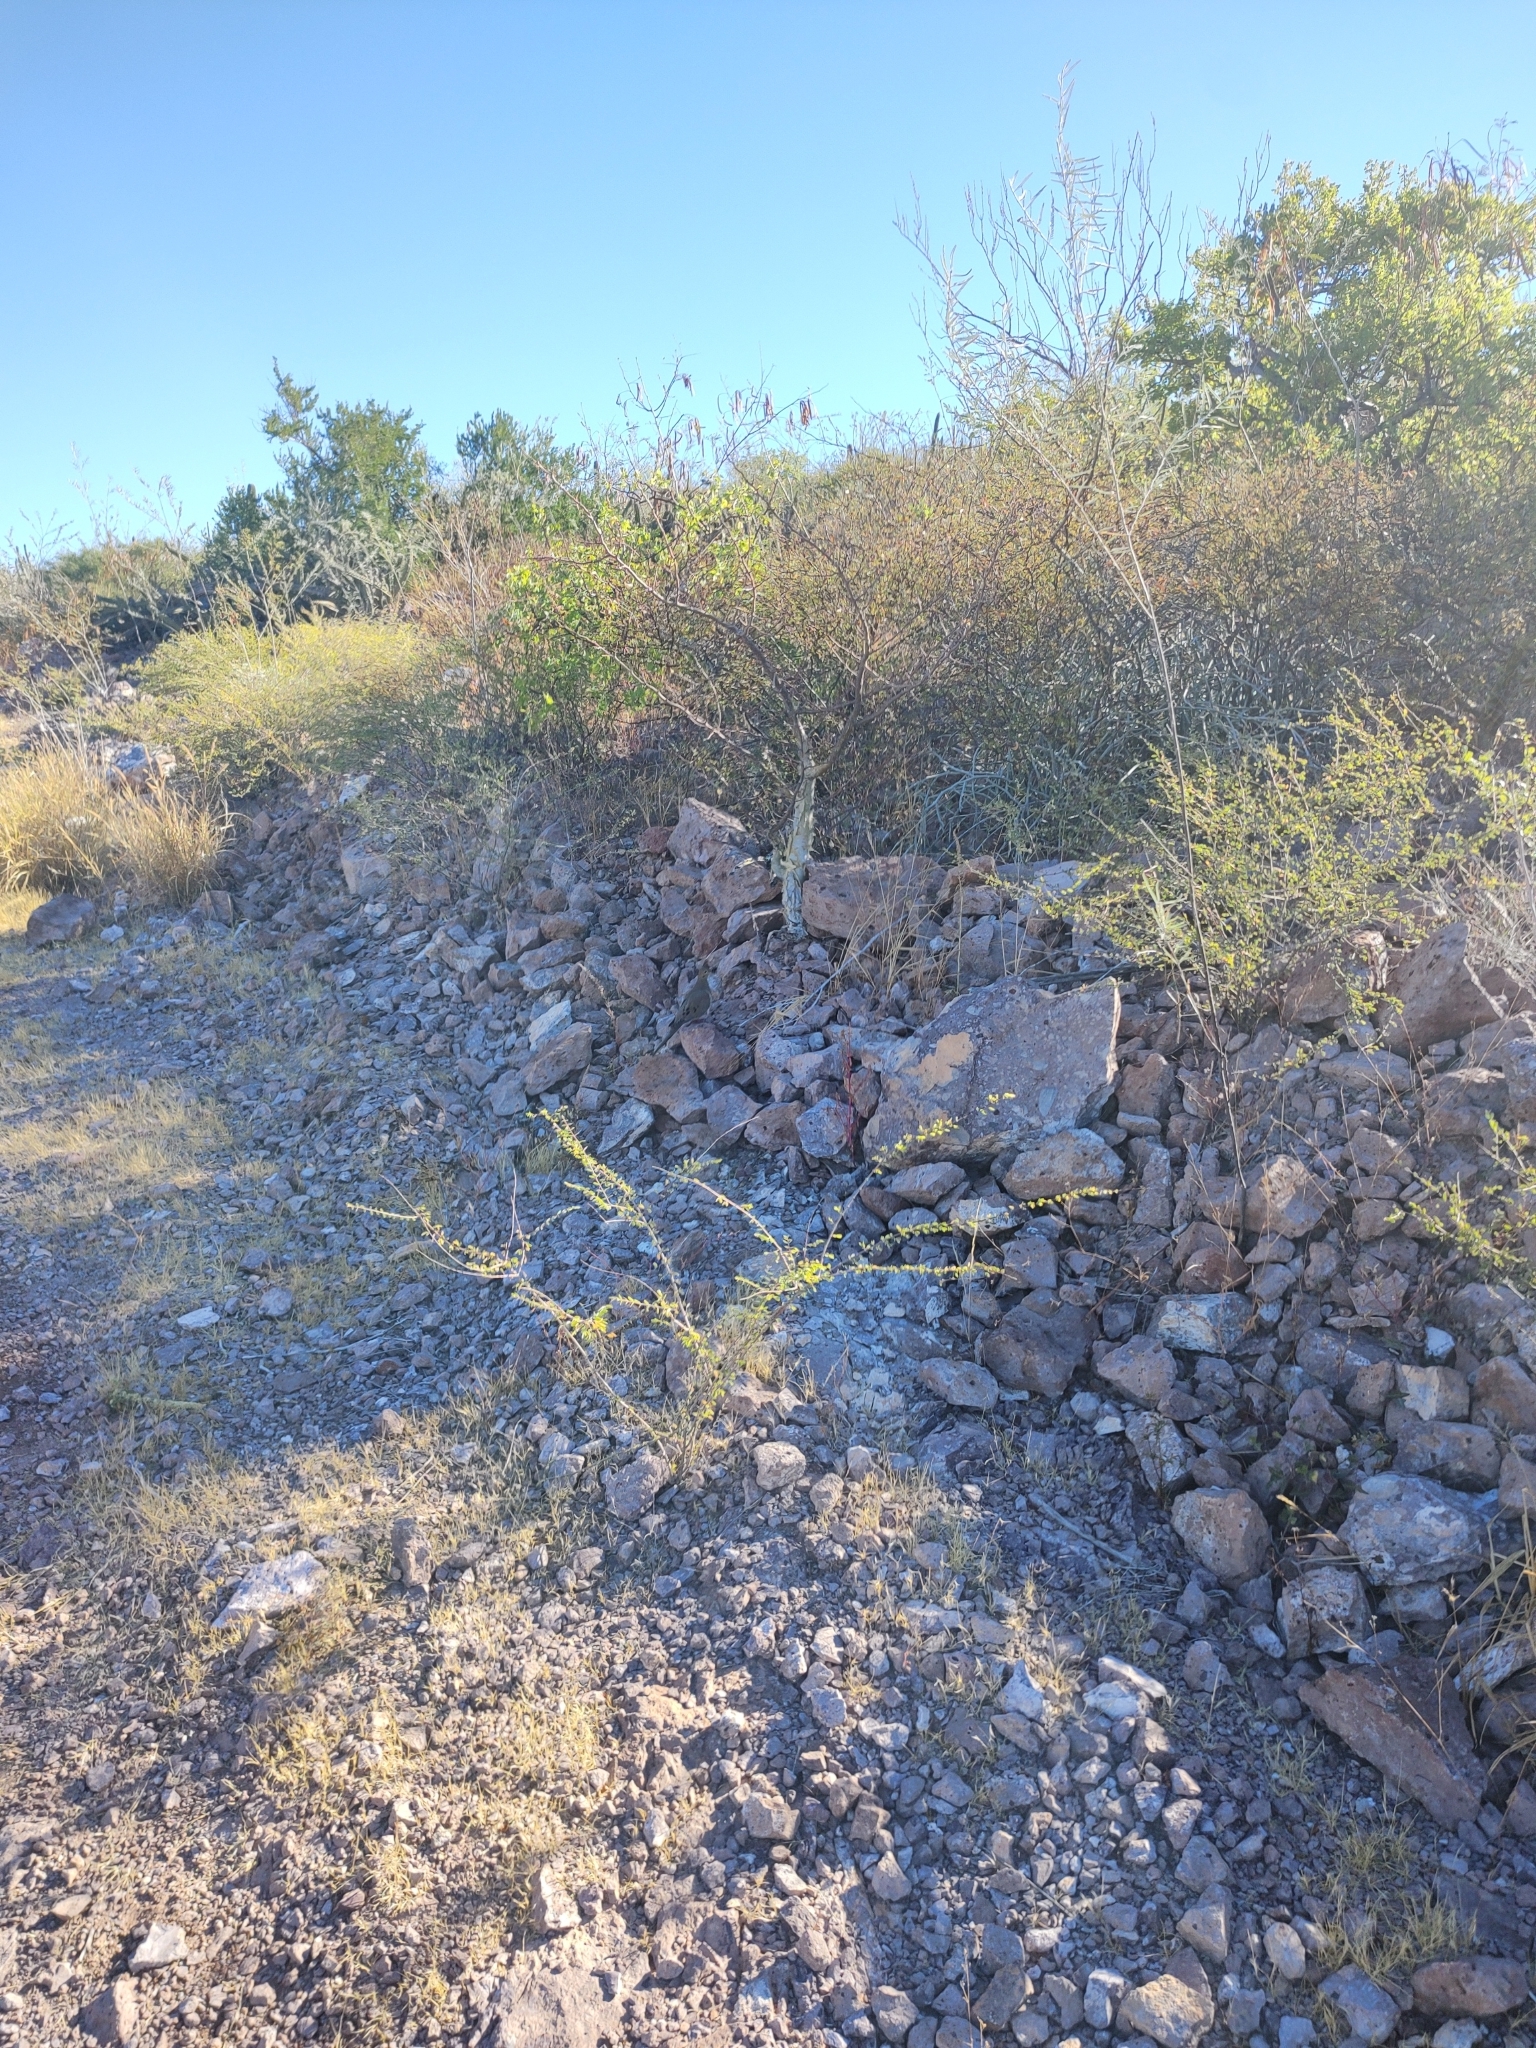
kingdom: Animalia
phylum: Chordata
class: Aves
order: Columbiformes
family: Columbidae
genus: Zenaida
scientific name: Zenaida macroura
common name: Mourning dove
